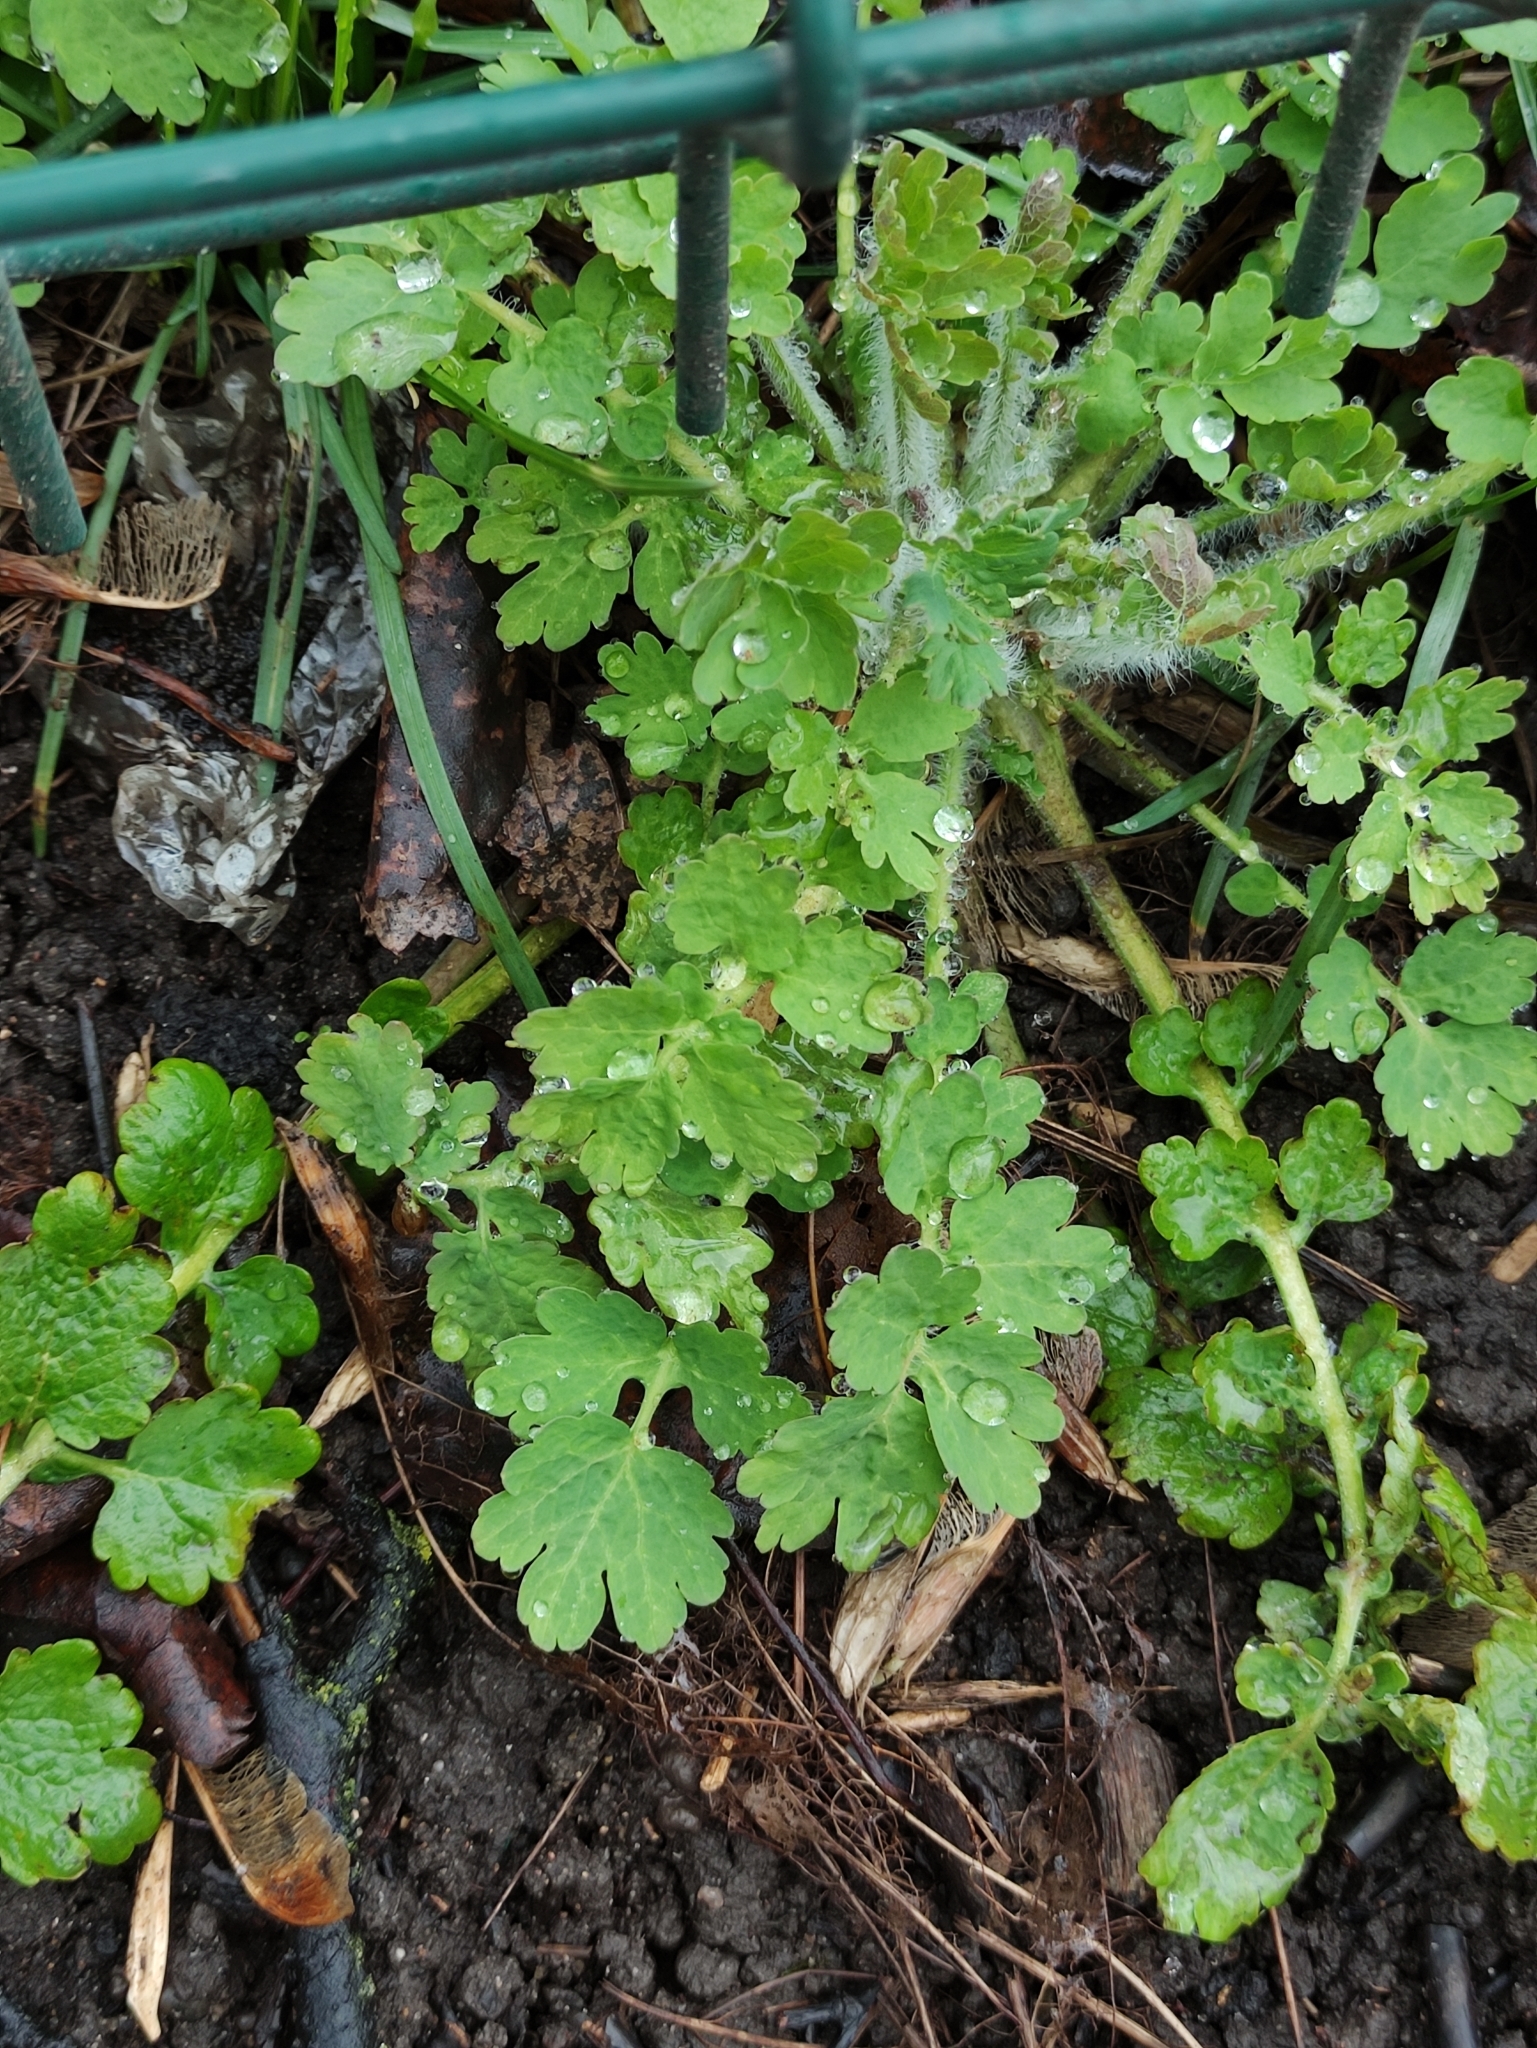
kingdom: Plantae
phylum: Tracheophyta
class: Magnoliopsida
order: Ranunculales
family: Papaveraceae
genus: Chelidonium
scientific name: Chelidonium majus
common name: Greater celandine
